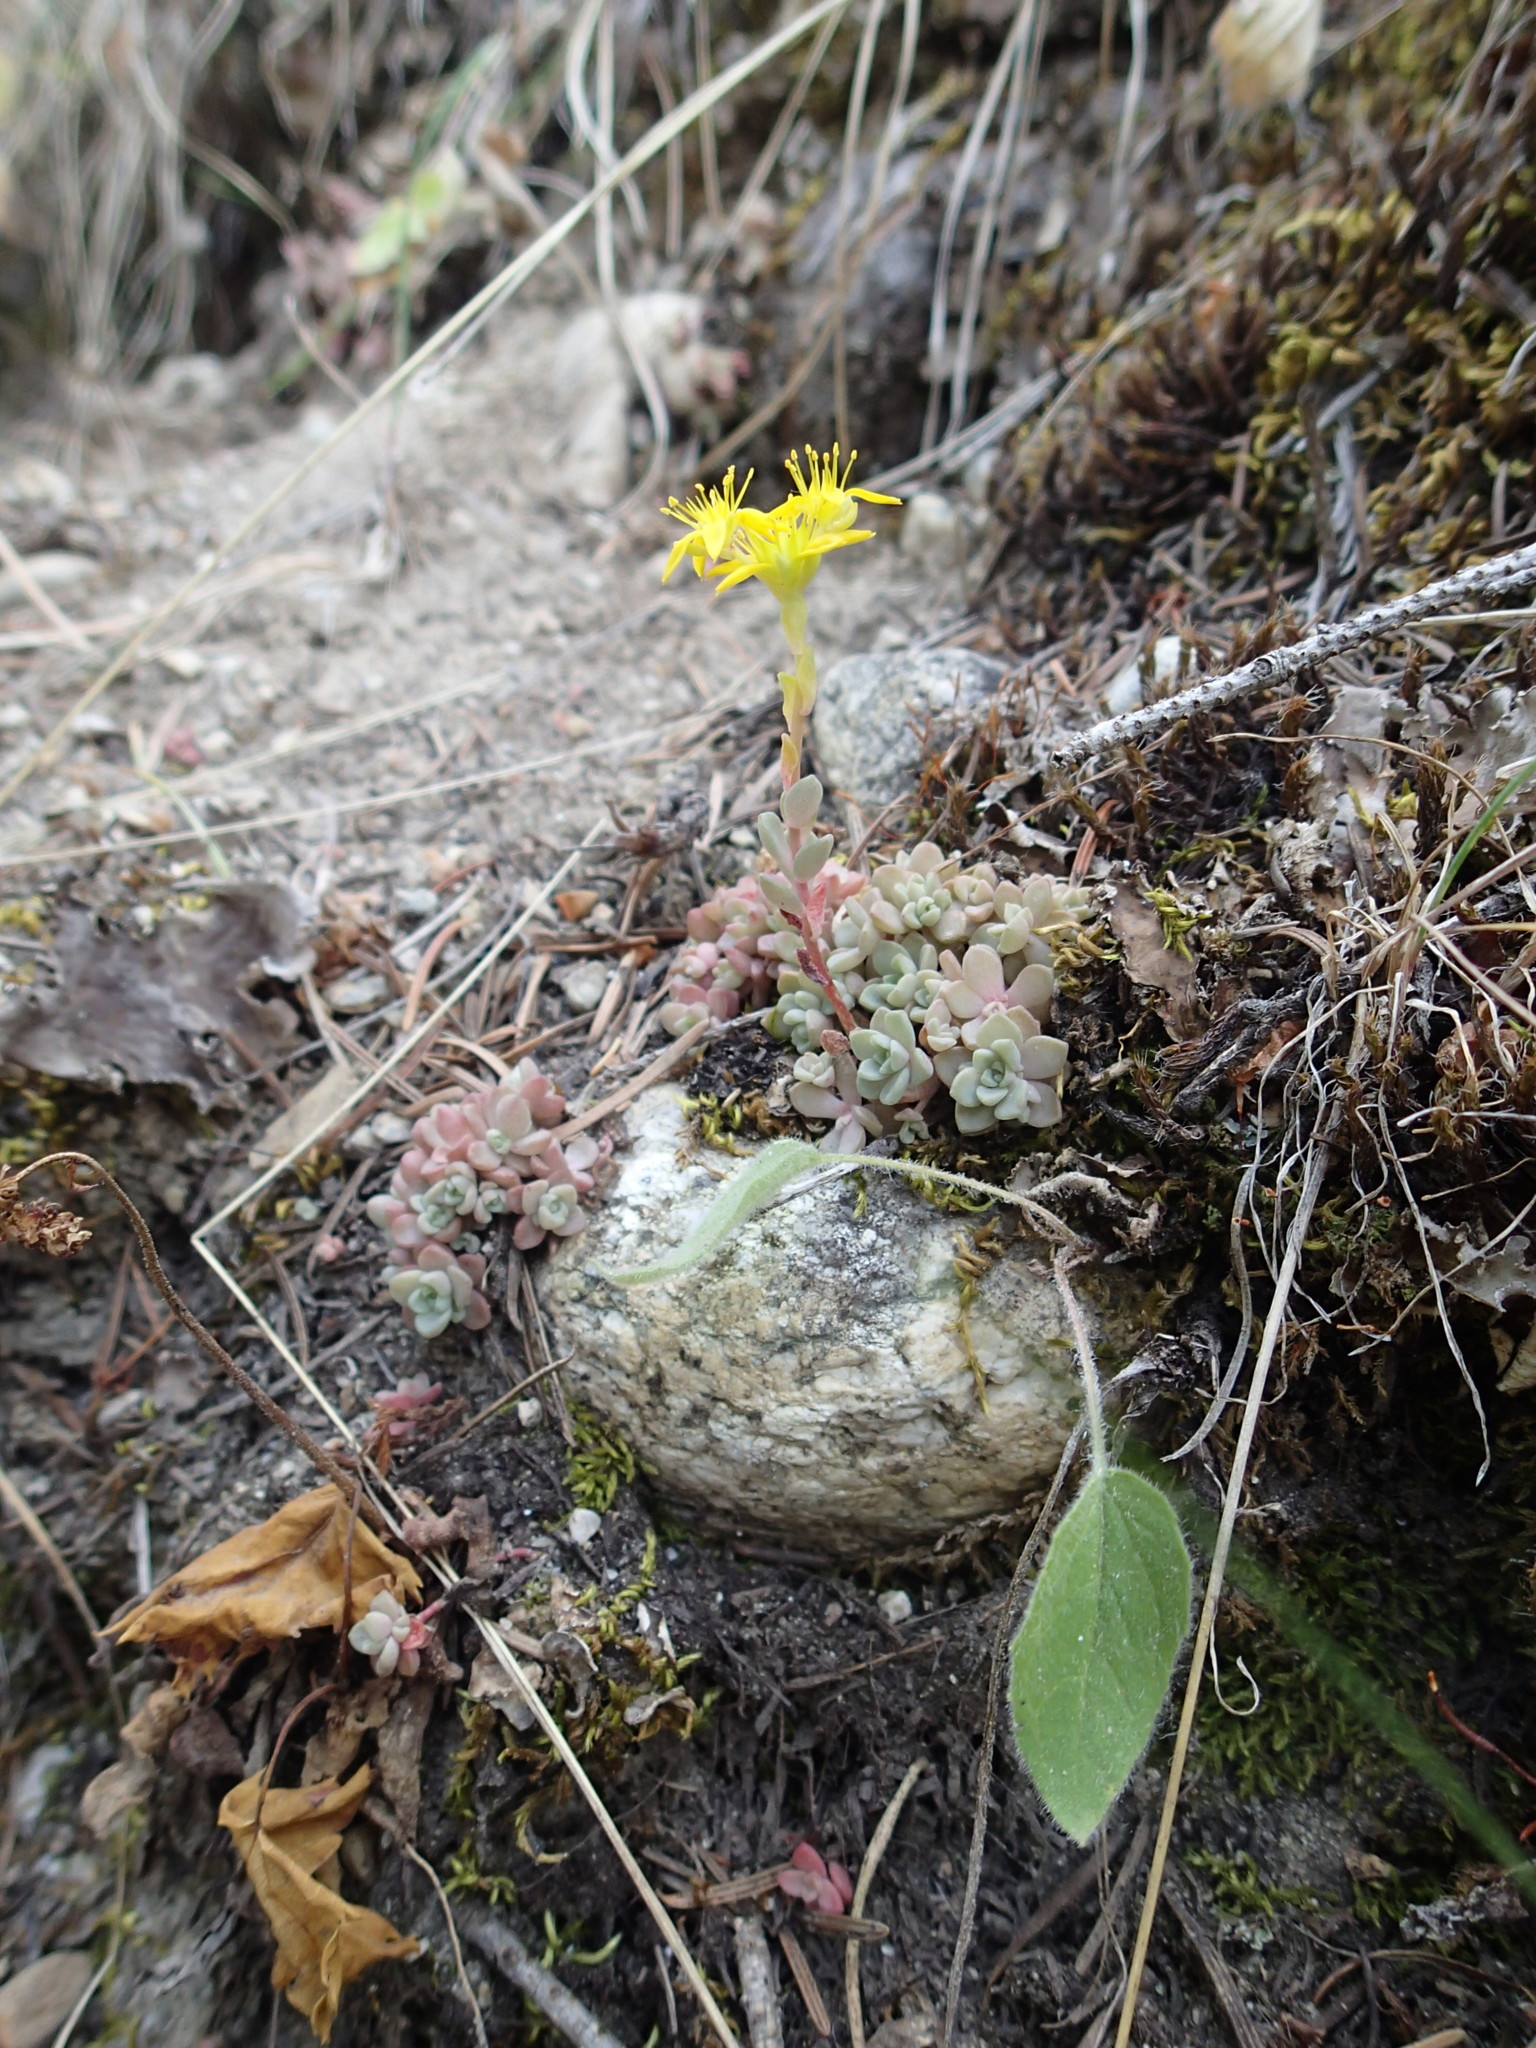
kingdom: Plantae
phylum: Tracheophyta
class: Magnoliopsida
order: Saxifragales
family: Crassulaceae
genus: Sedum
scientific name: Sedum leibergii
